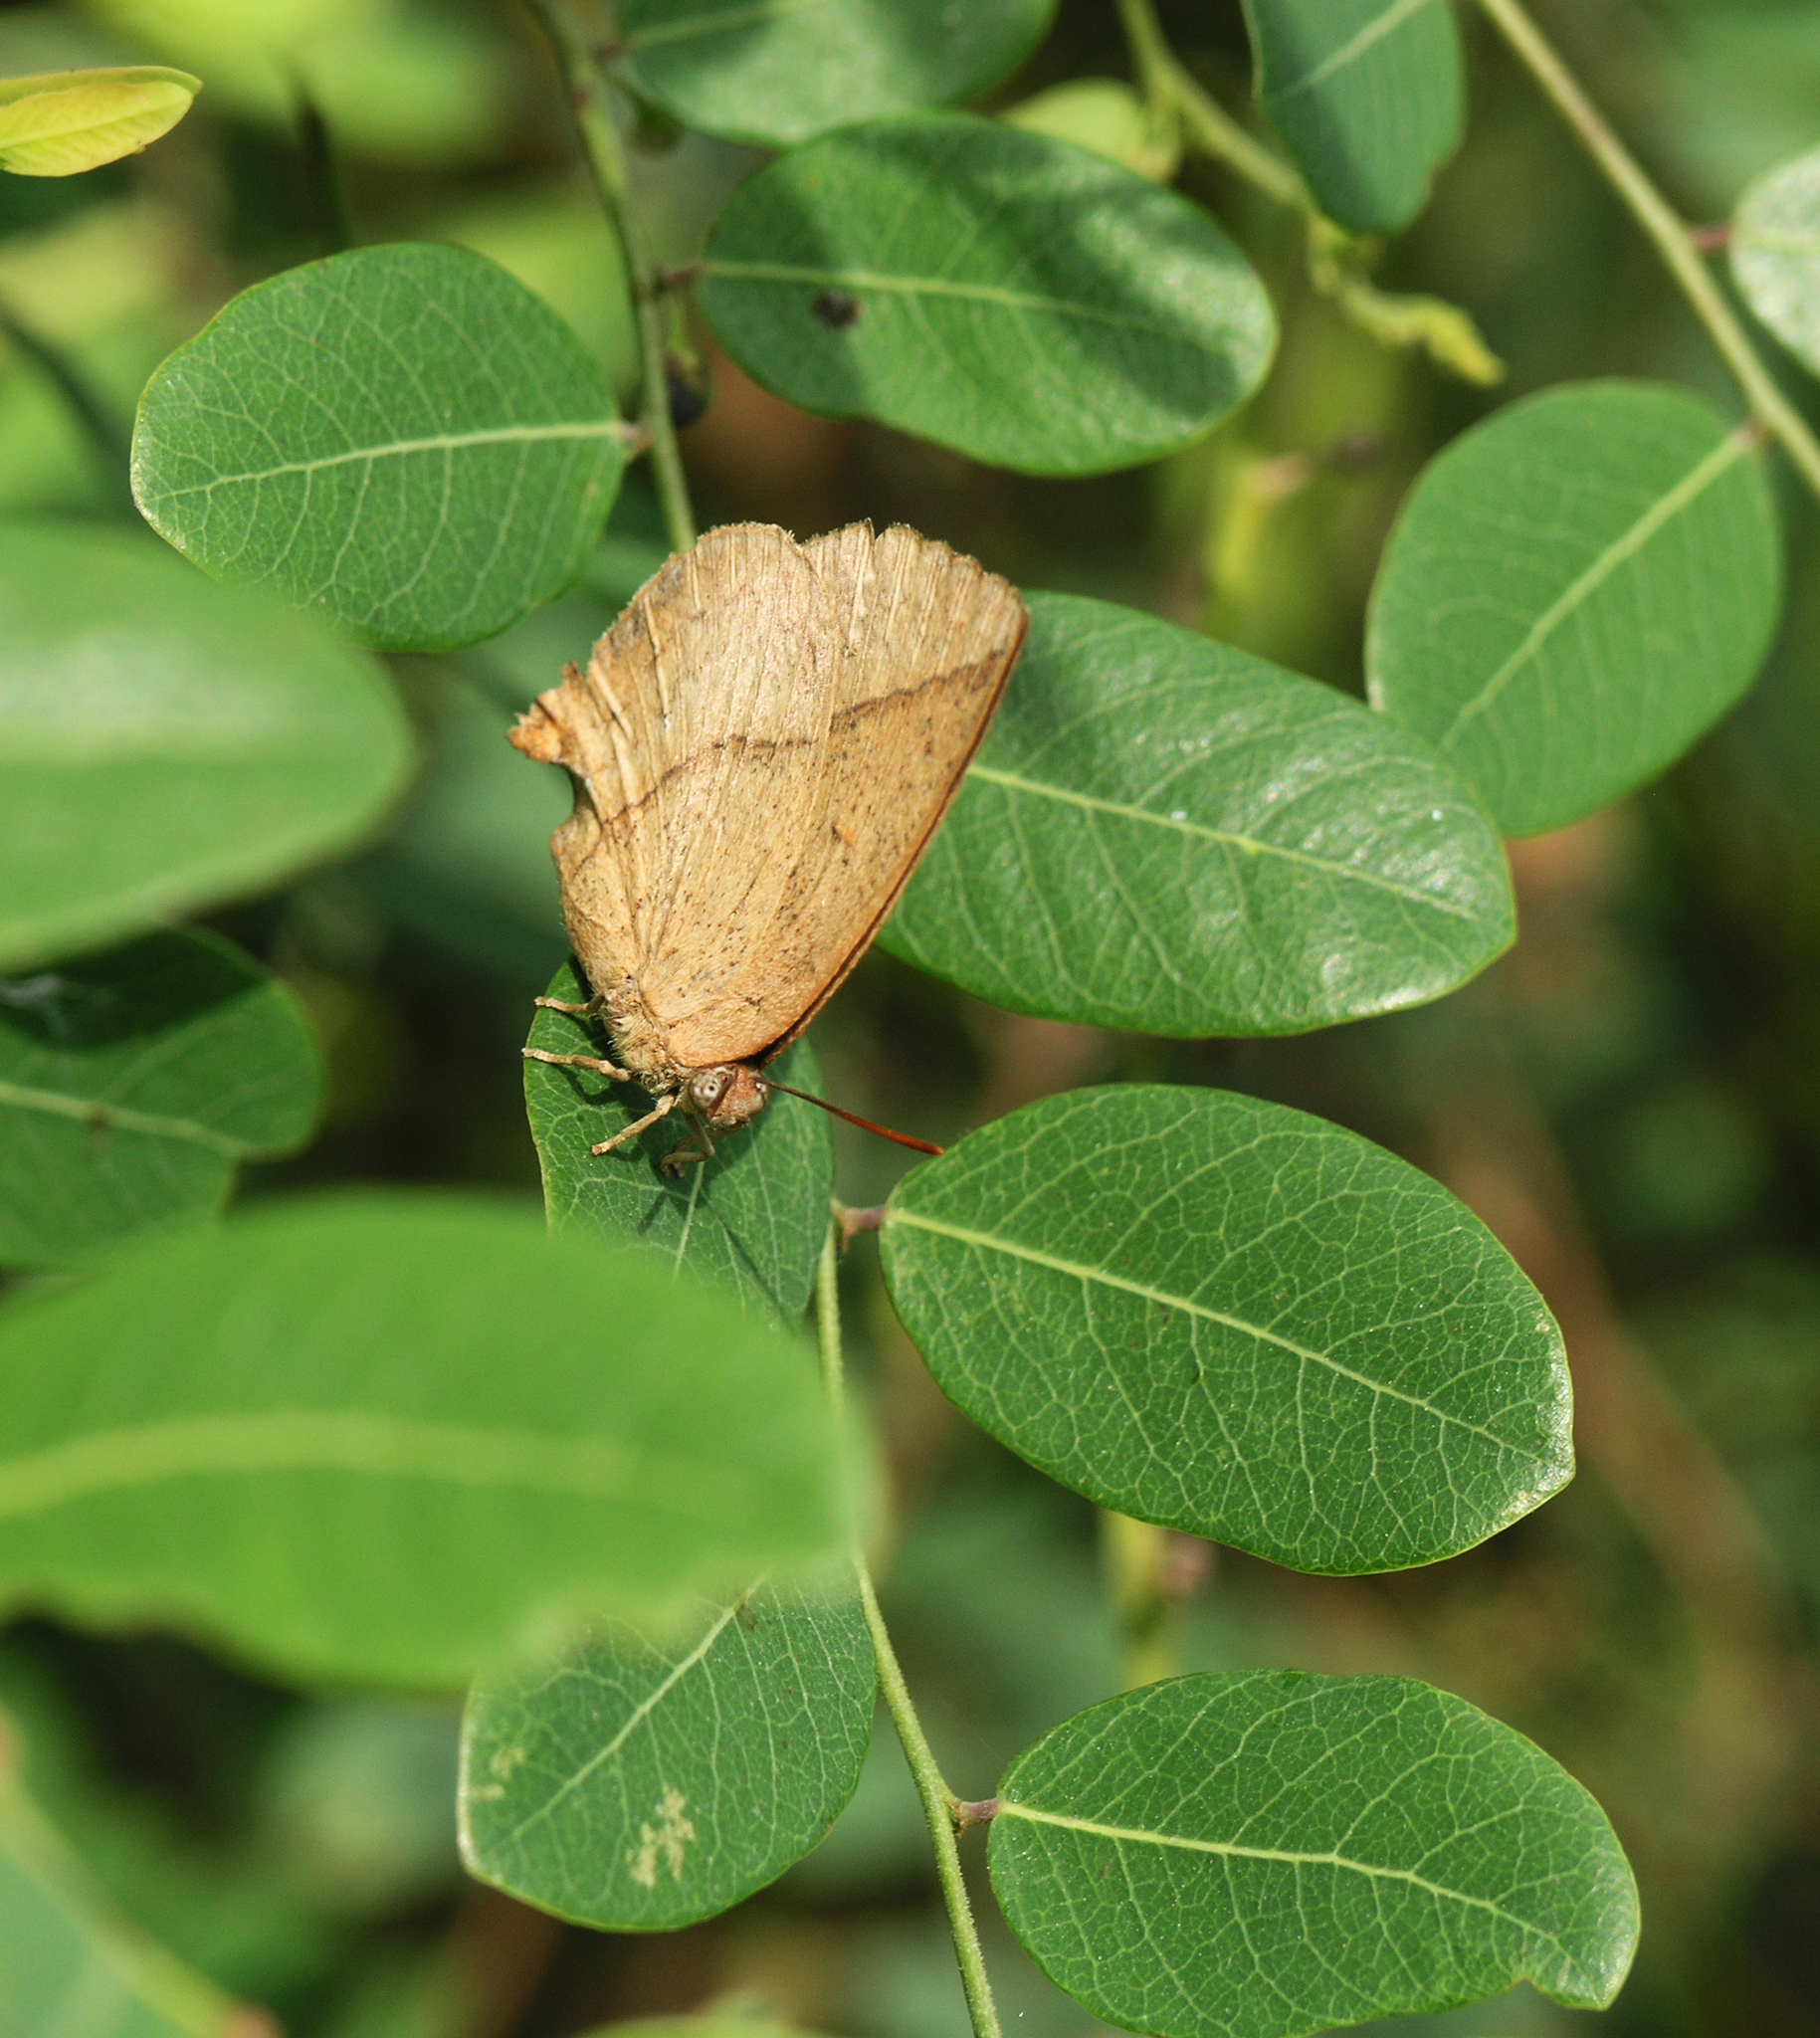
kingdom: Animalia
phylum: Arthropoda
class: Insecta
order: Lepidoptera
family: Lycaenidae
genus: Amblypodia
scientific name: Amblypodia anita
